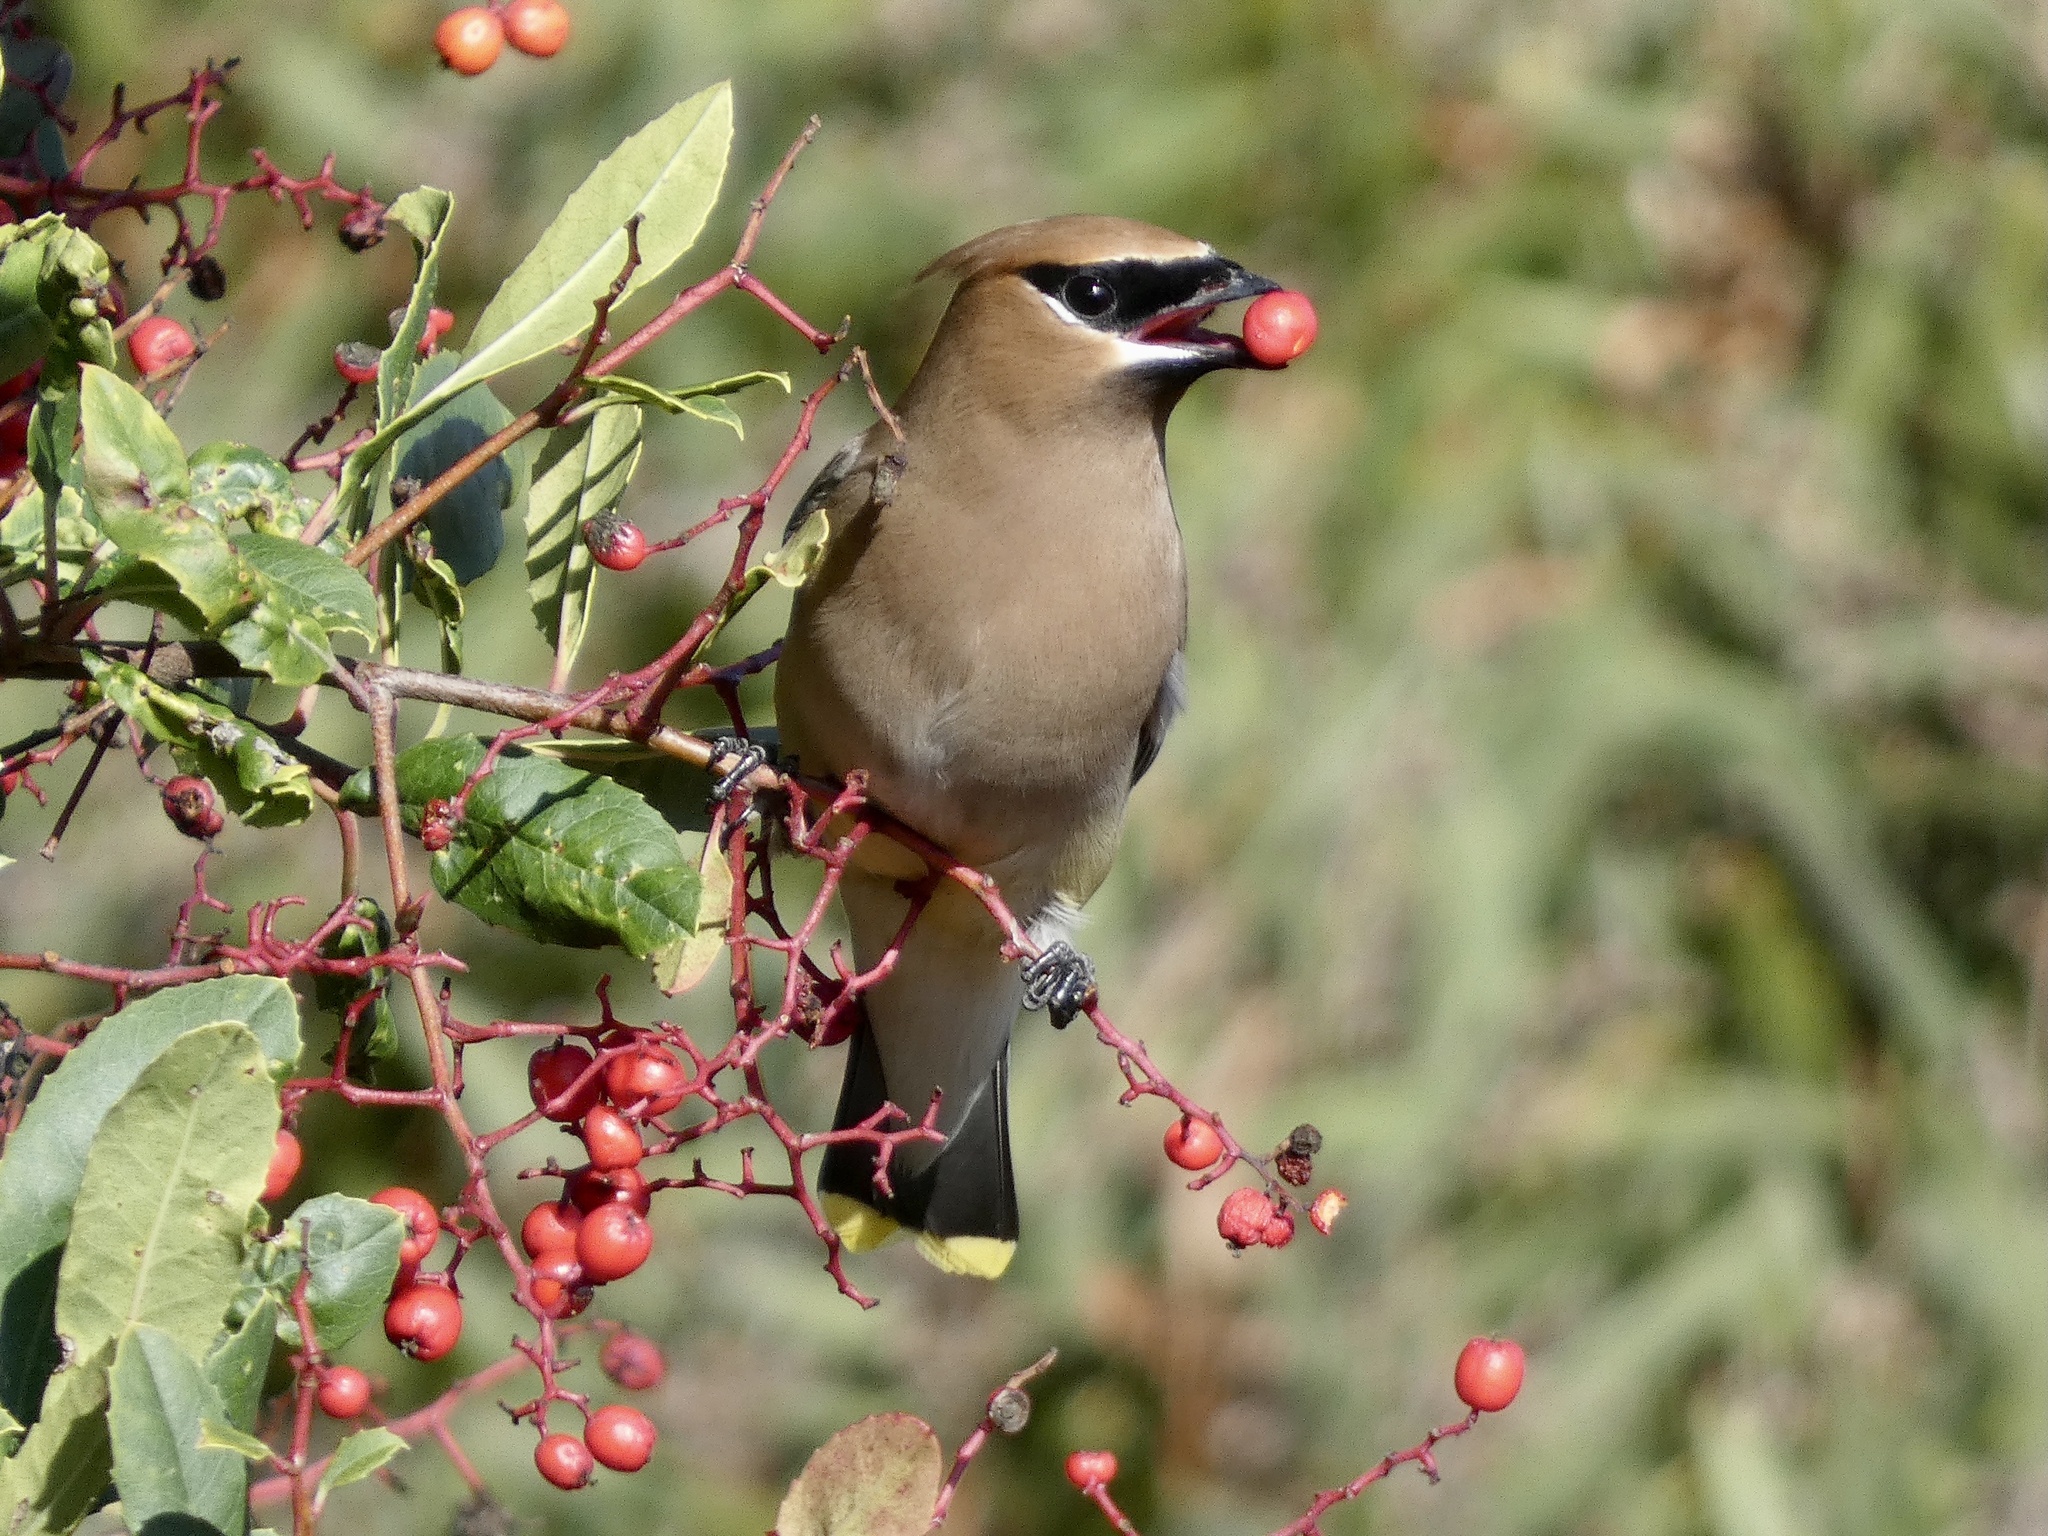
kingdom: Animalia
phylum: Chordata
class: Aves
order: Passeriformes
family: Bombycillidae
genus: Bombycilla
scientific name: Bombycilla cedrorum
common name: Cedar waxwing
